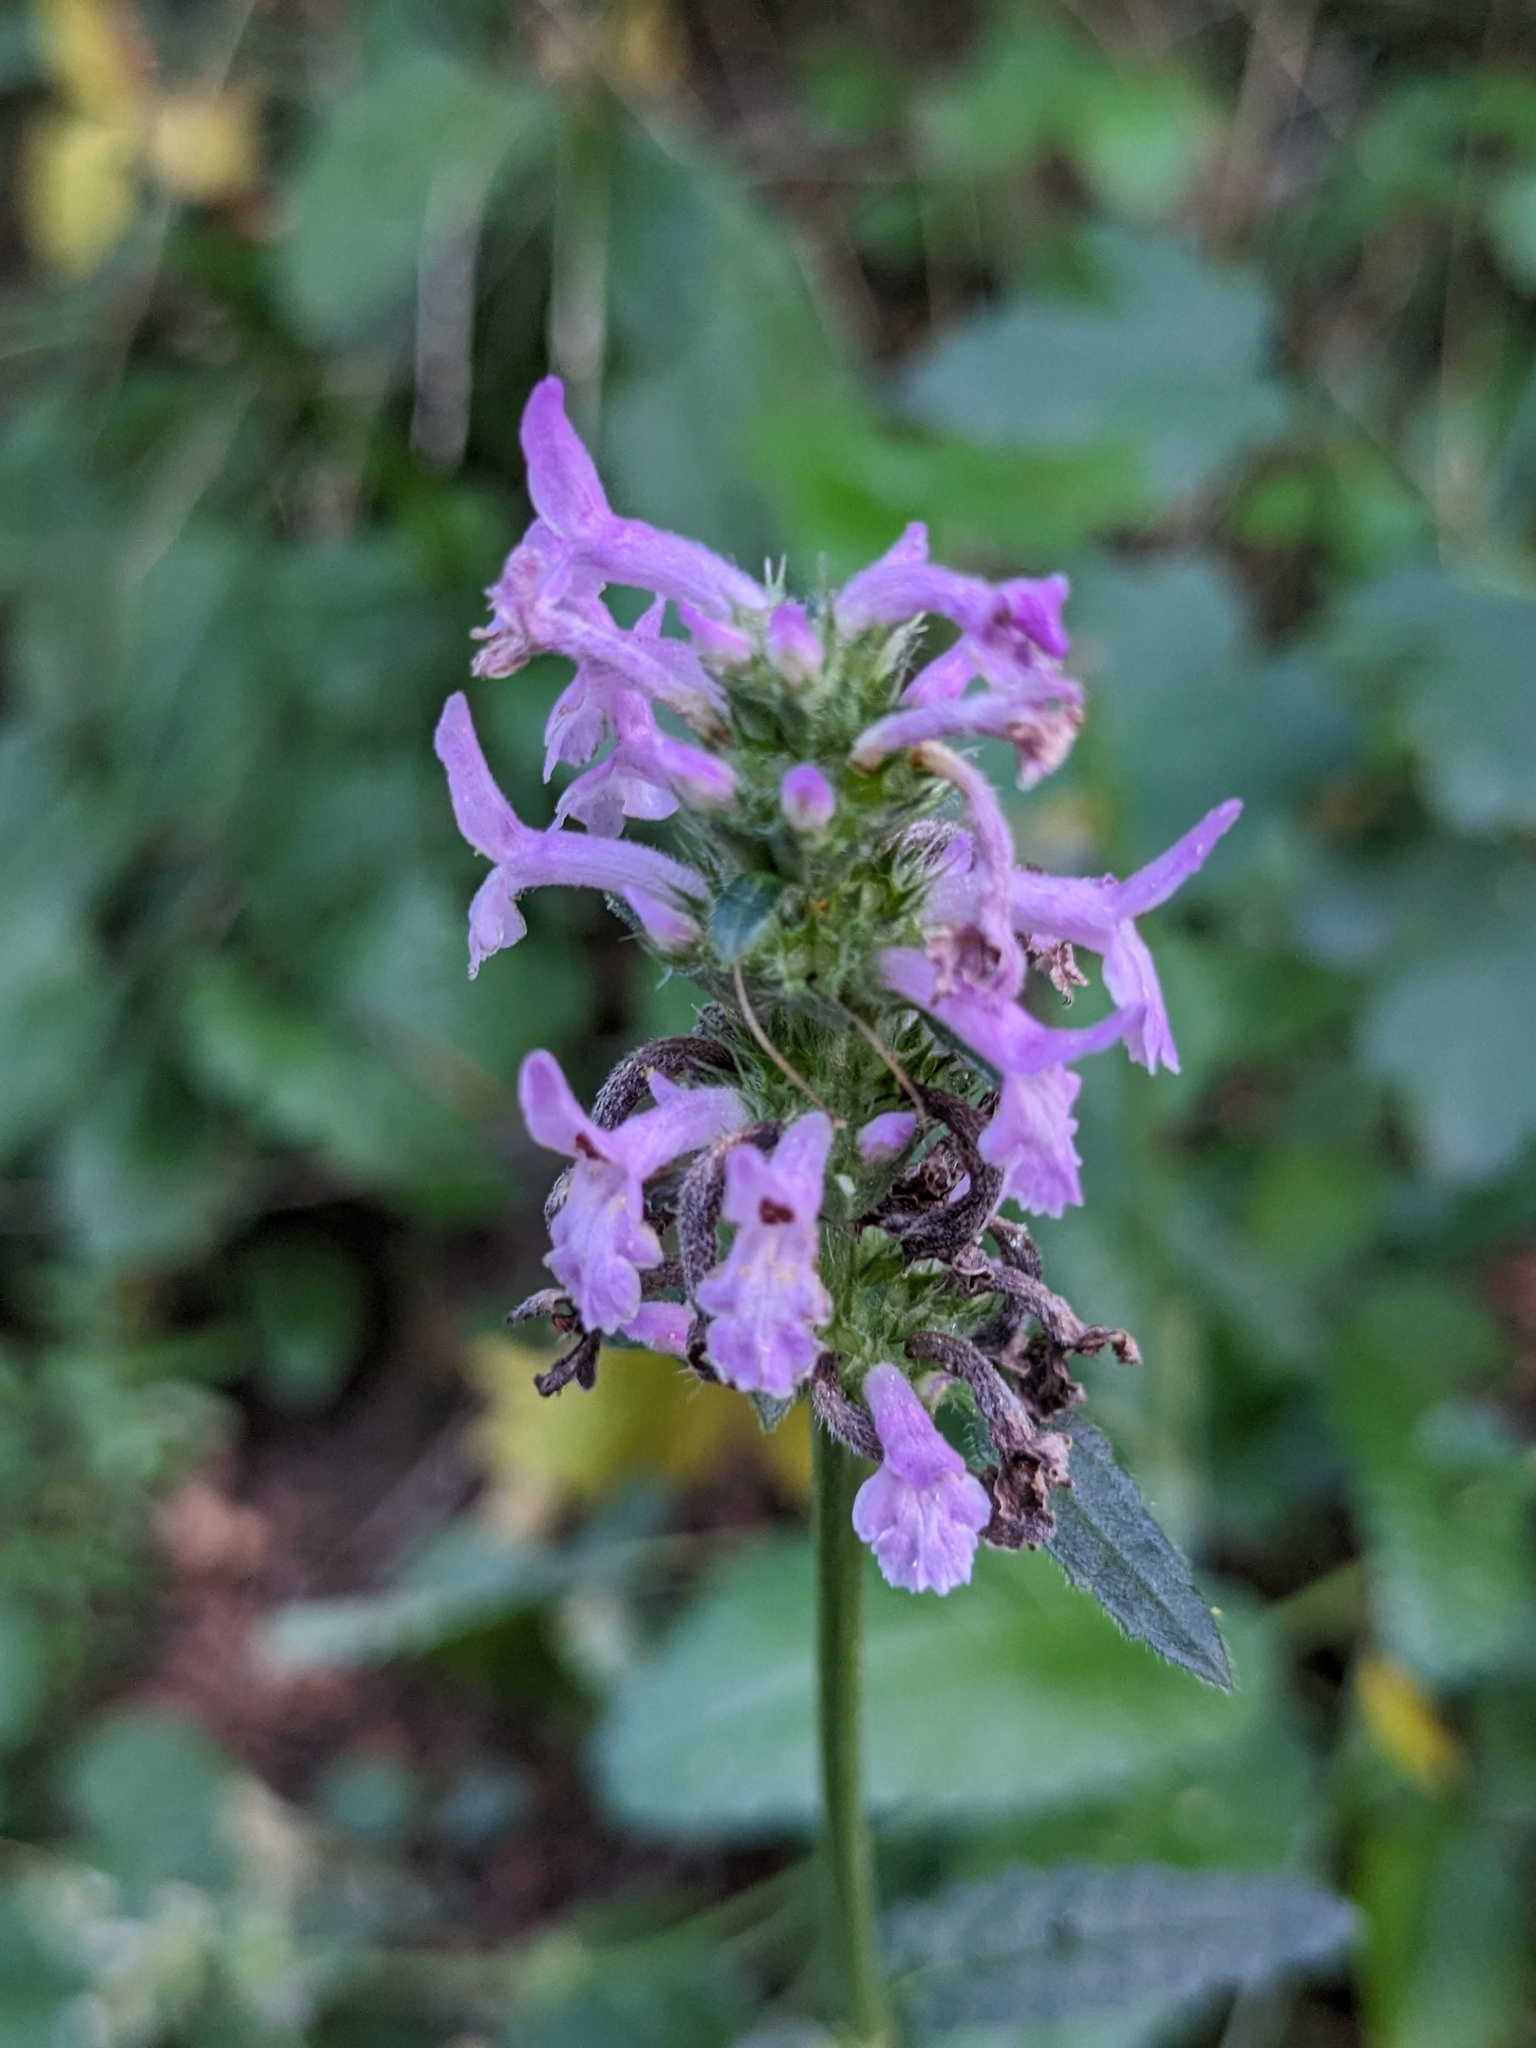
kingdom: Plantae
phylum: Tracheophyta
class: Magnoliopsida
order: Lamiales
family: Lamiaceae
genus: Betonica
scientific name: Betonica officinalis
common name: Bishop's-wort
